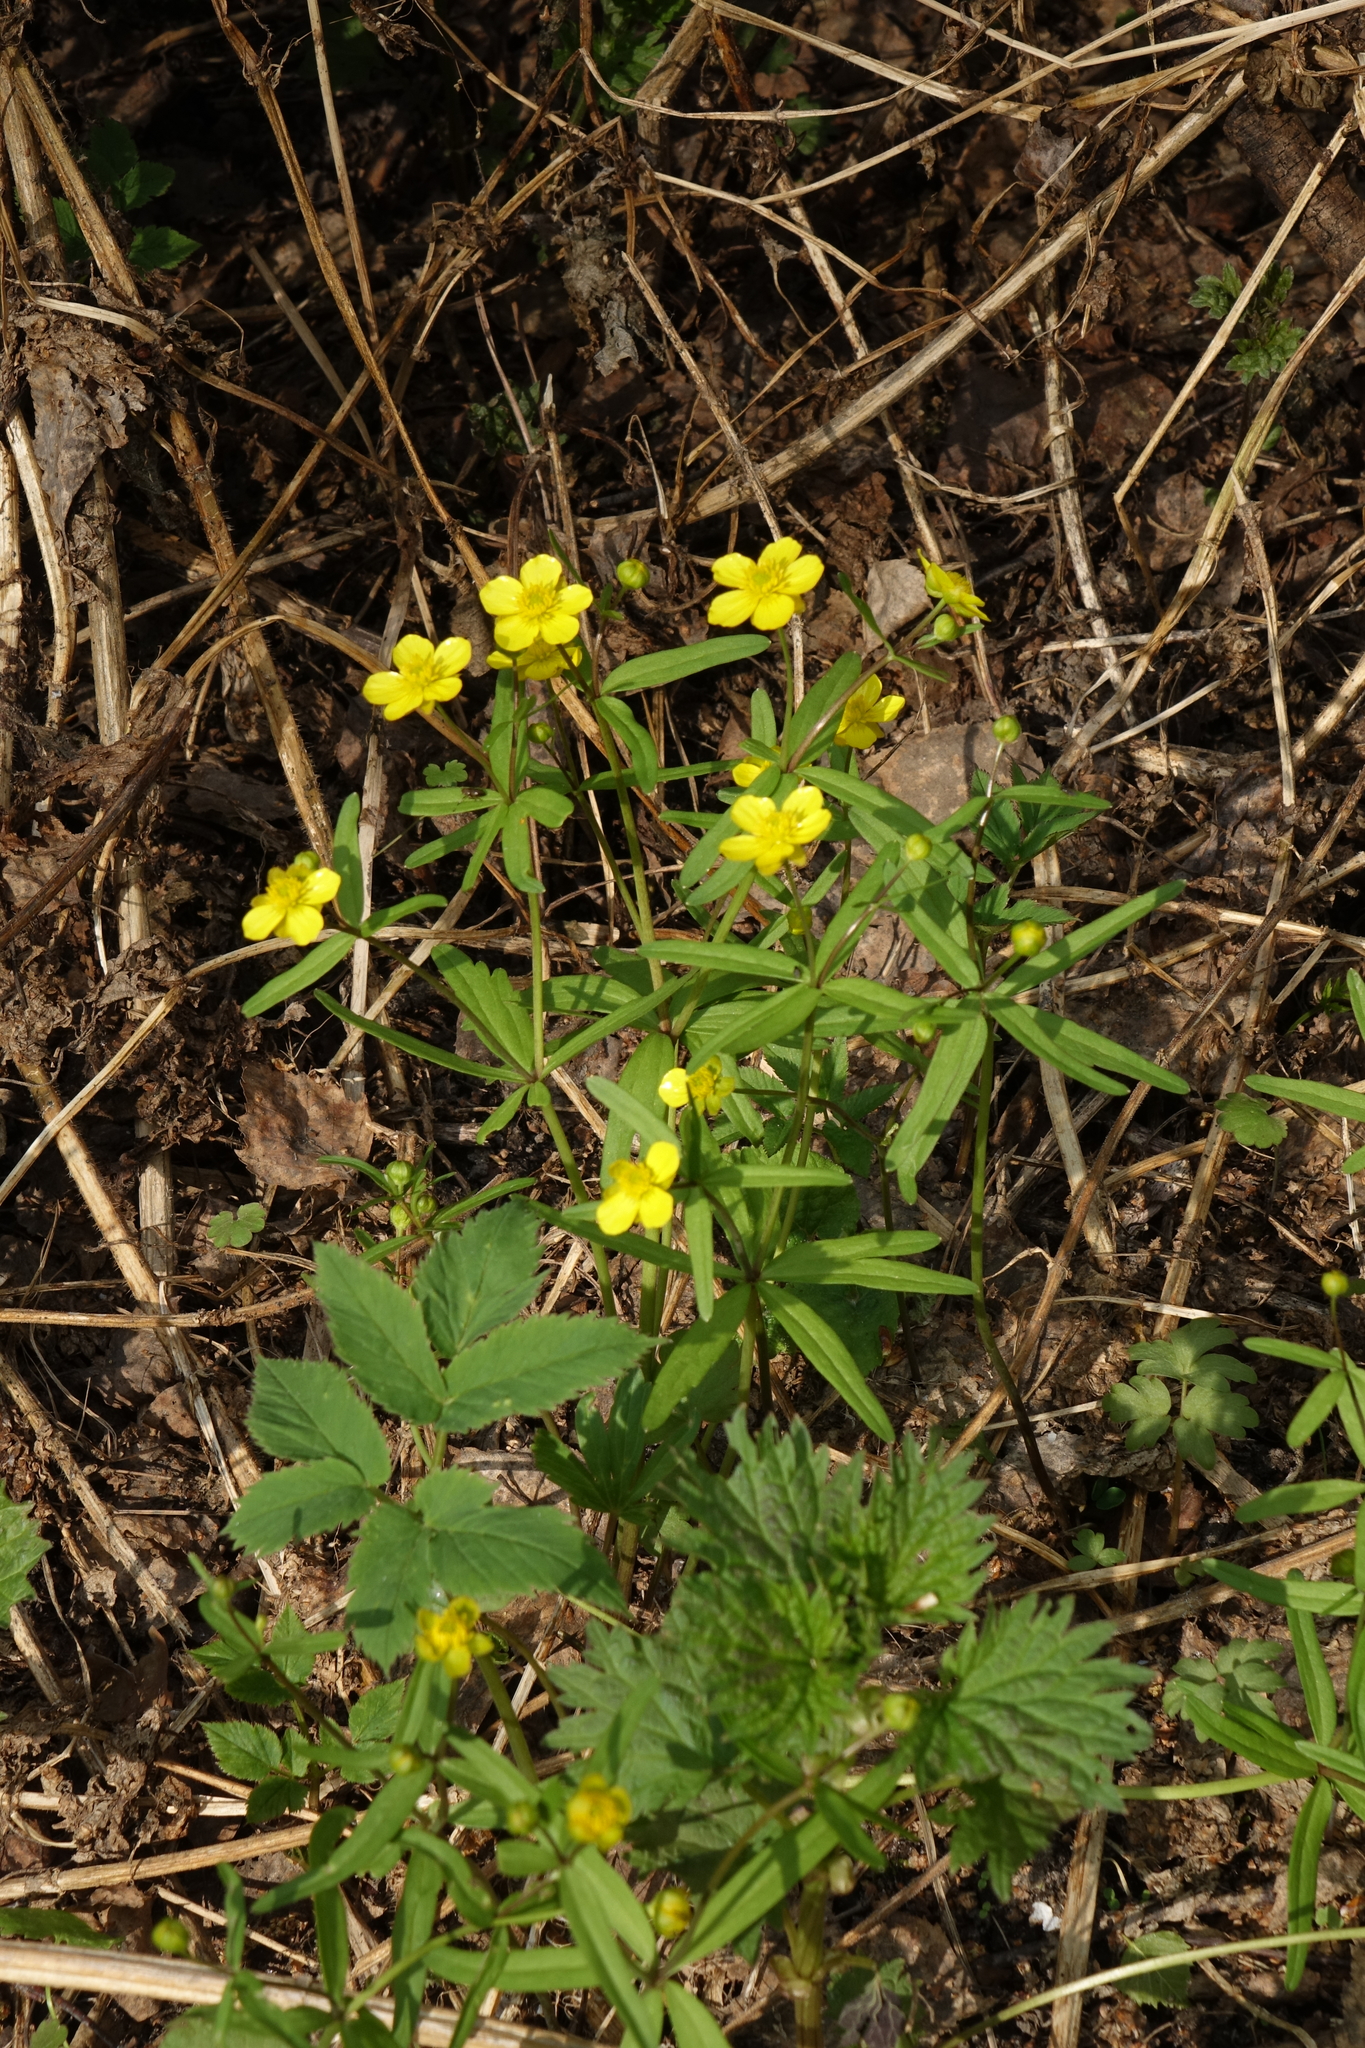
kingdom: Plantae
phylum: Tracheophyta
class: Magnoliopsida
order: Ranunculales
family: Ranunculaceae
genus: Ranunculus
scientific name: Ranunculus monophyllus
